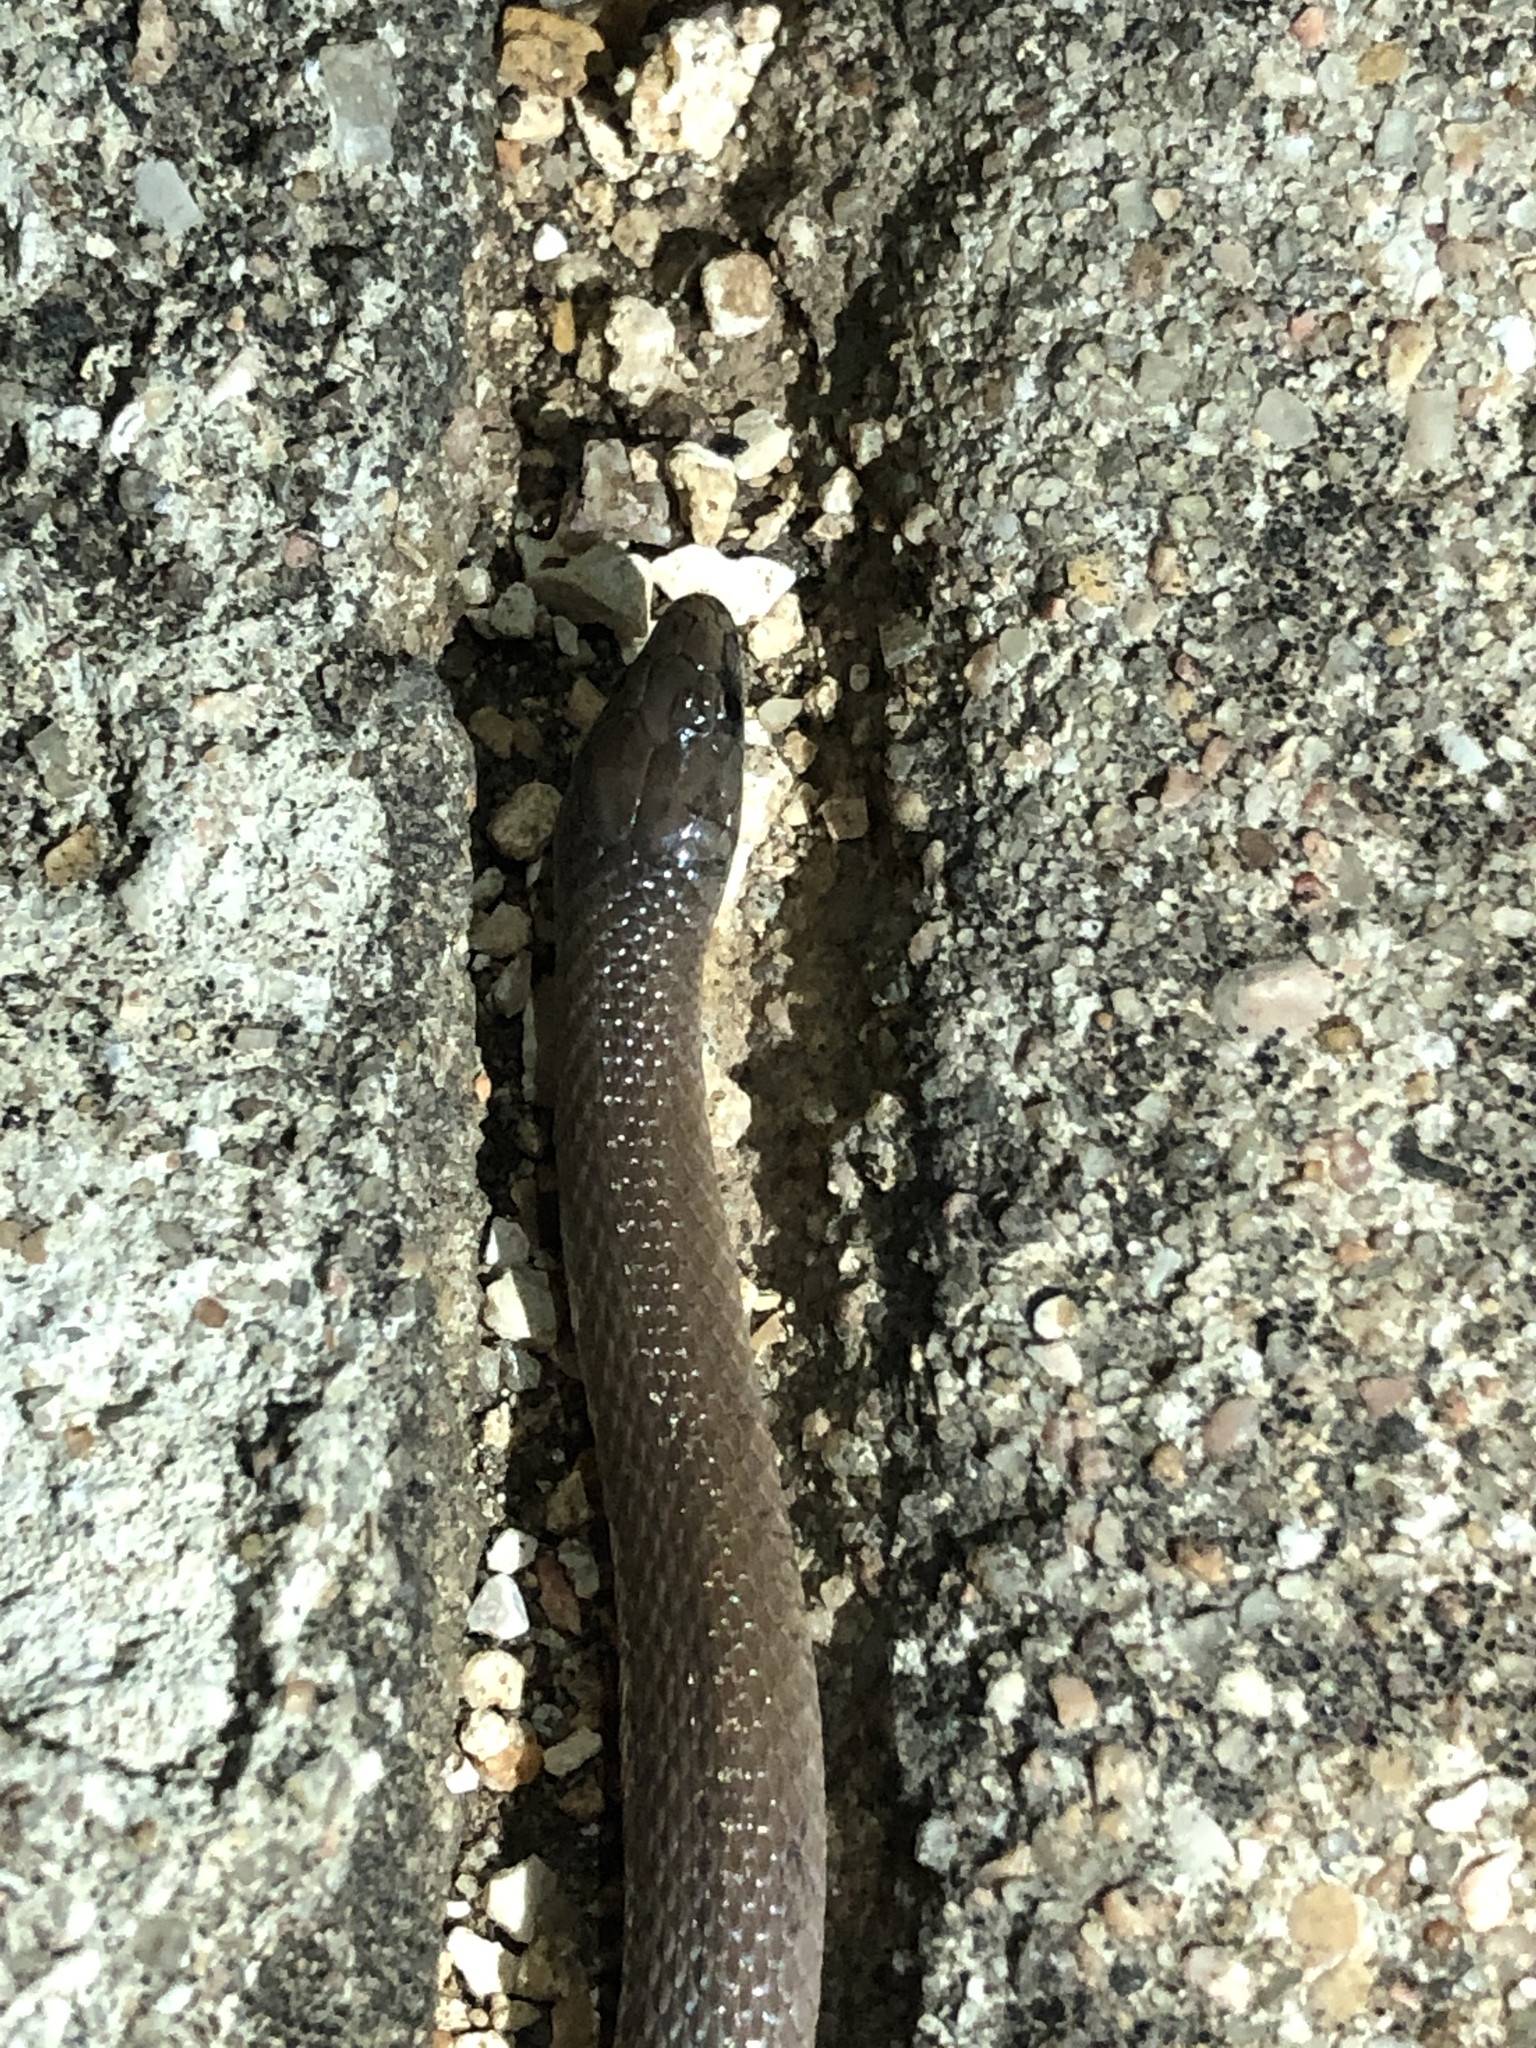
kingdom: Animalia
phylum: Chordata
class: Squamata
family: Colubridae
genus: Haldea
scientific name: Haldea striatula
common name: Rough earth snake
